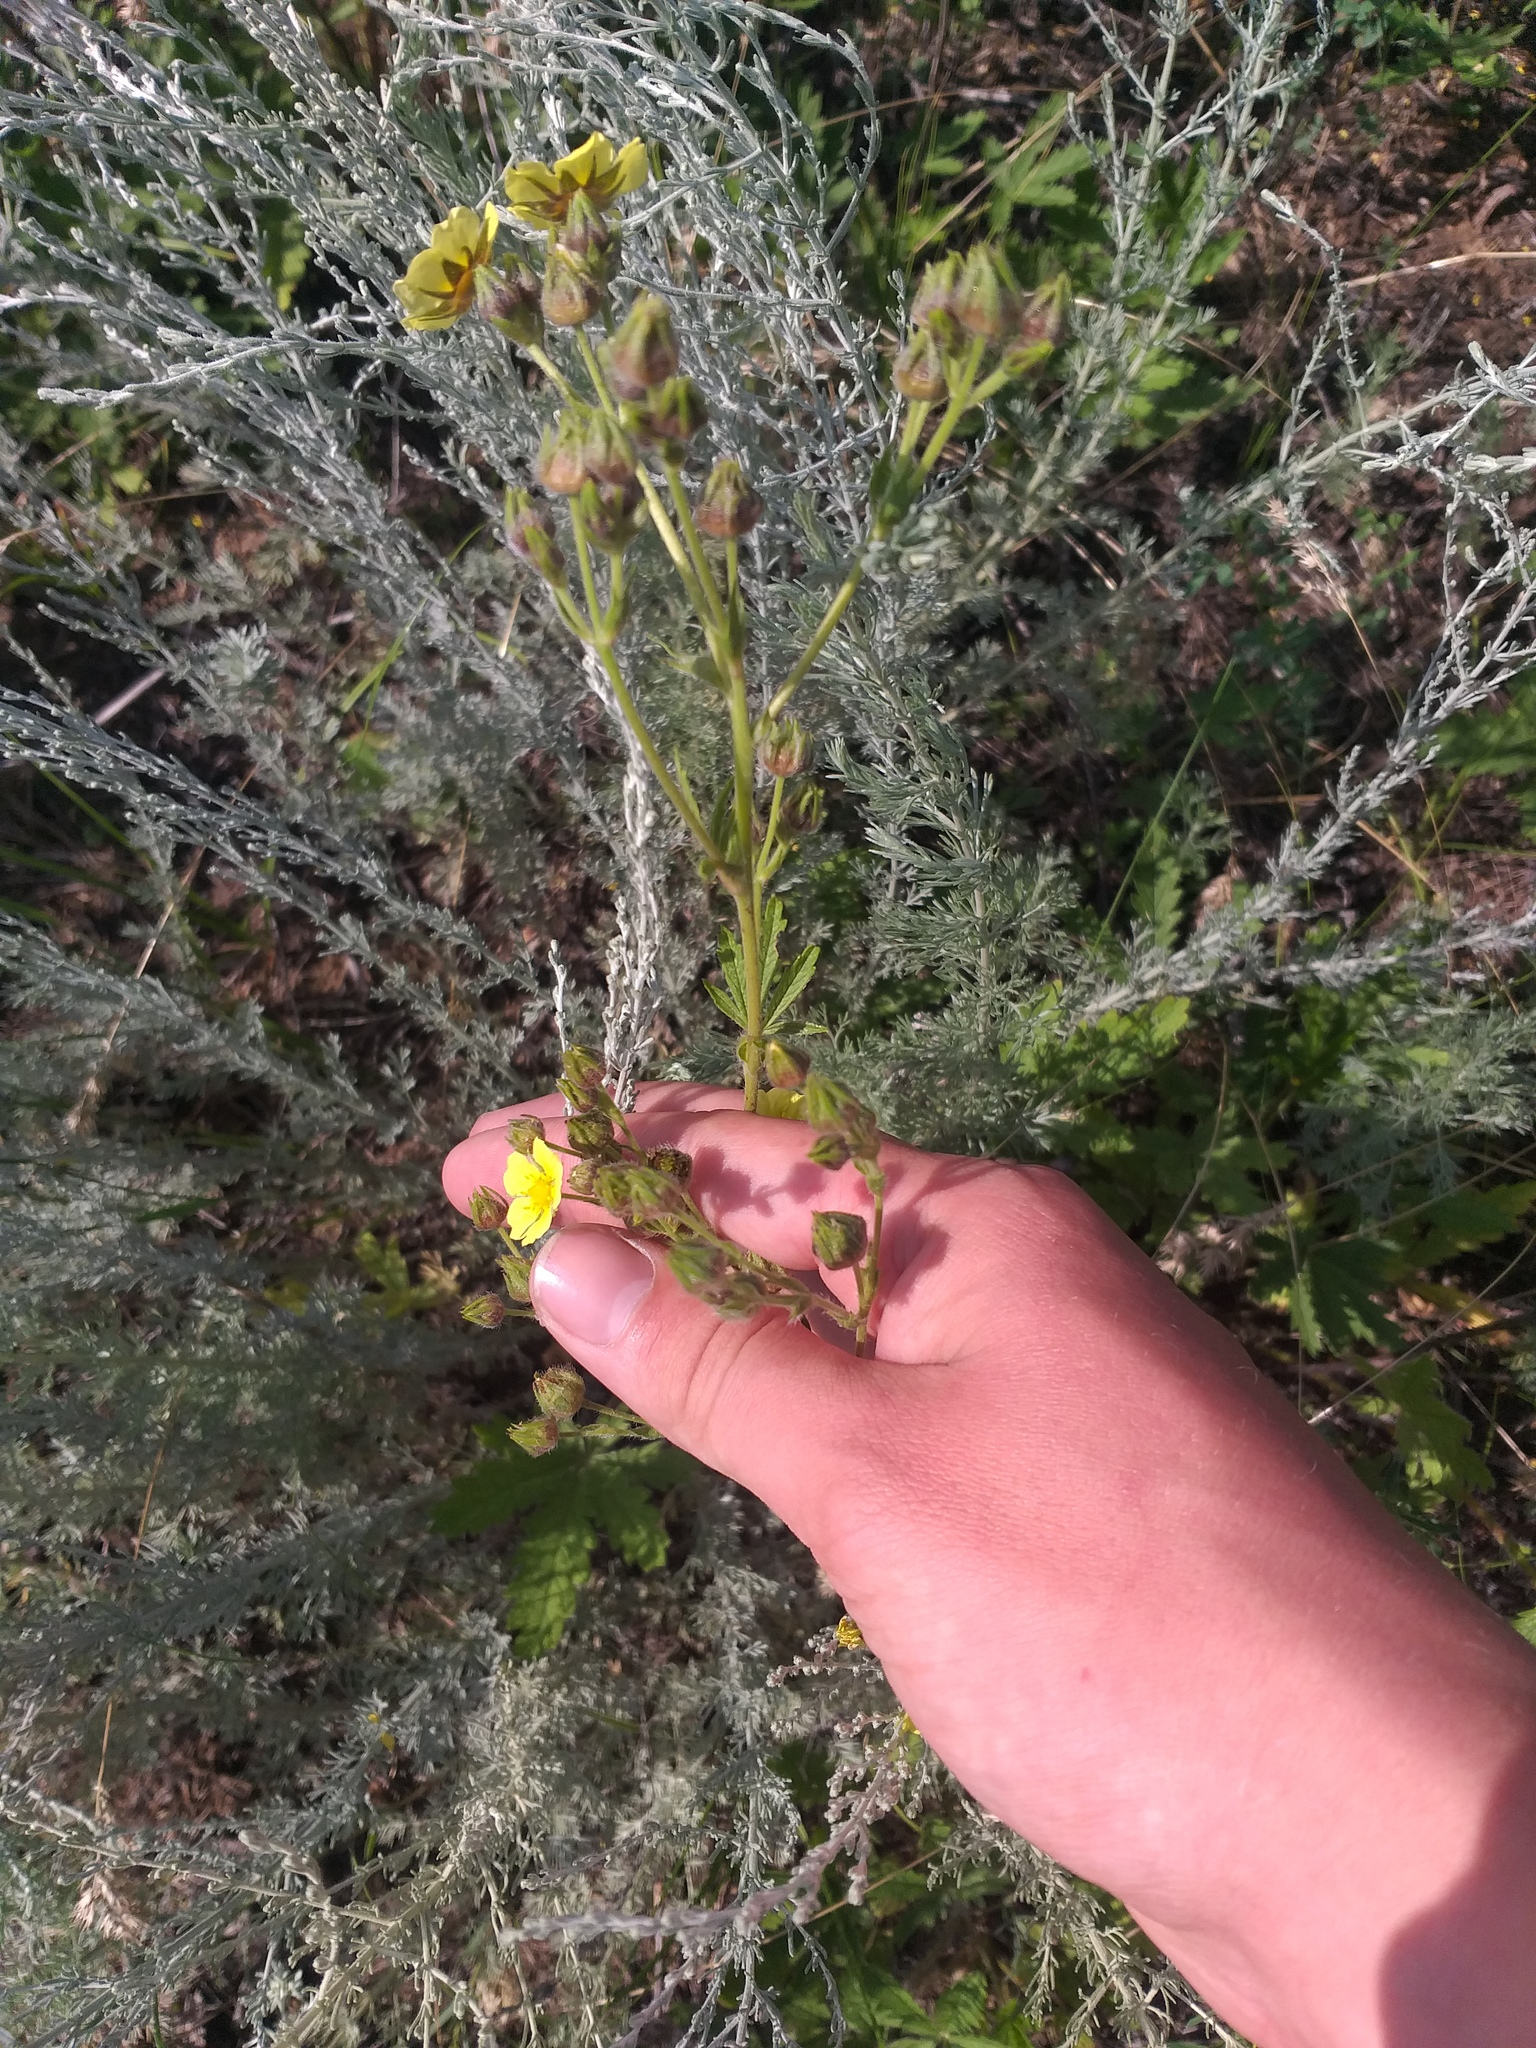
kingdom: Plantae
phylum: Tracheophyta
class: Magnoliopsida
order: Rosales
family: Rosaceae
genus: Potentilla
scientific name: Potentilla recta
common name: Sulphur cinquefoil
